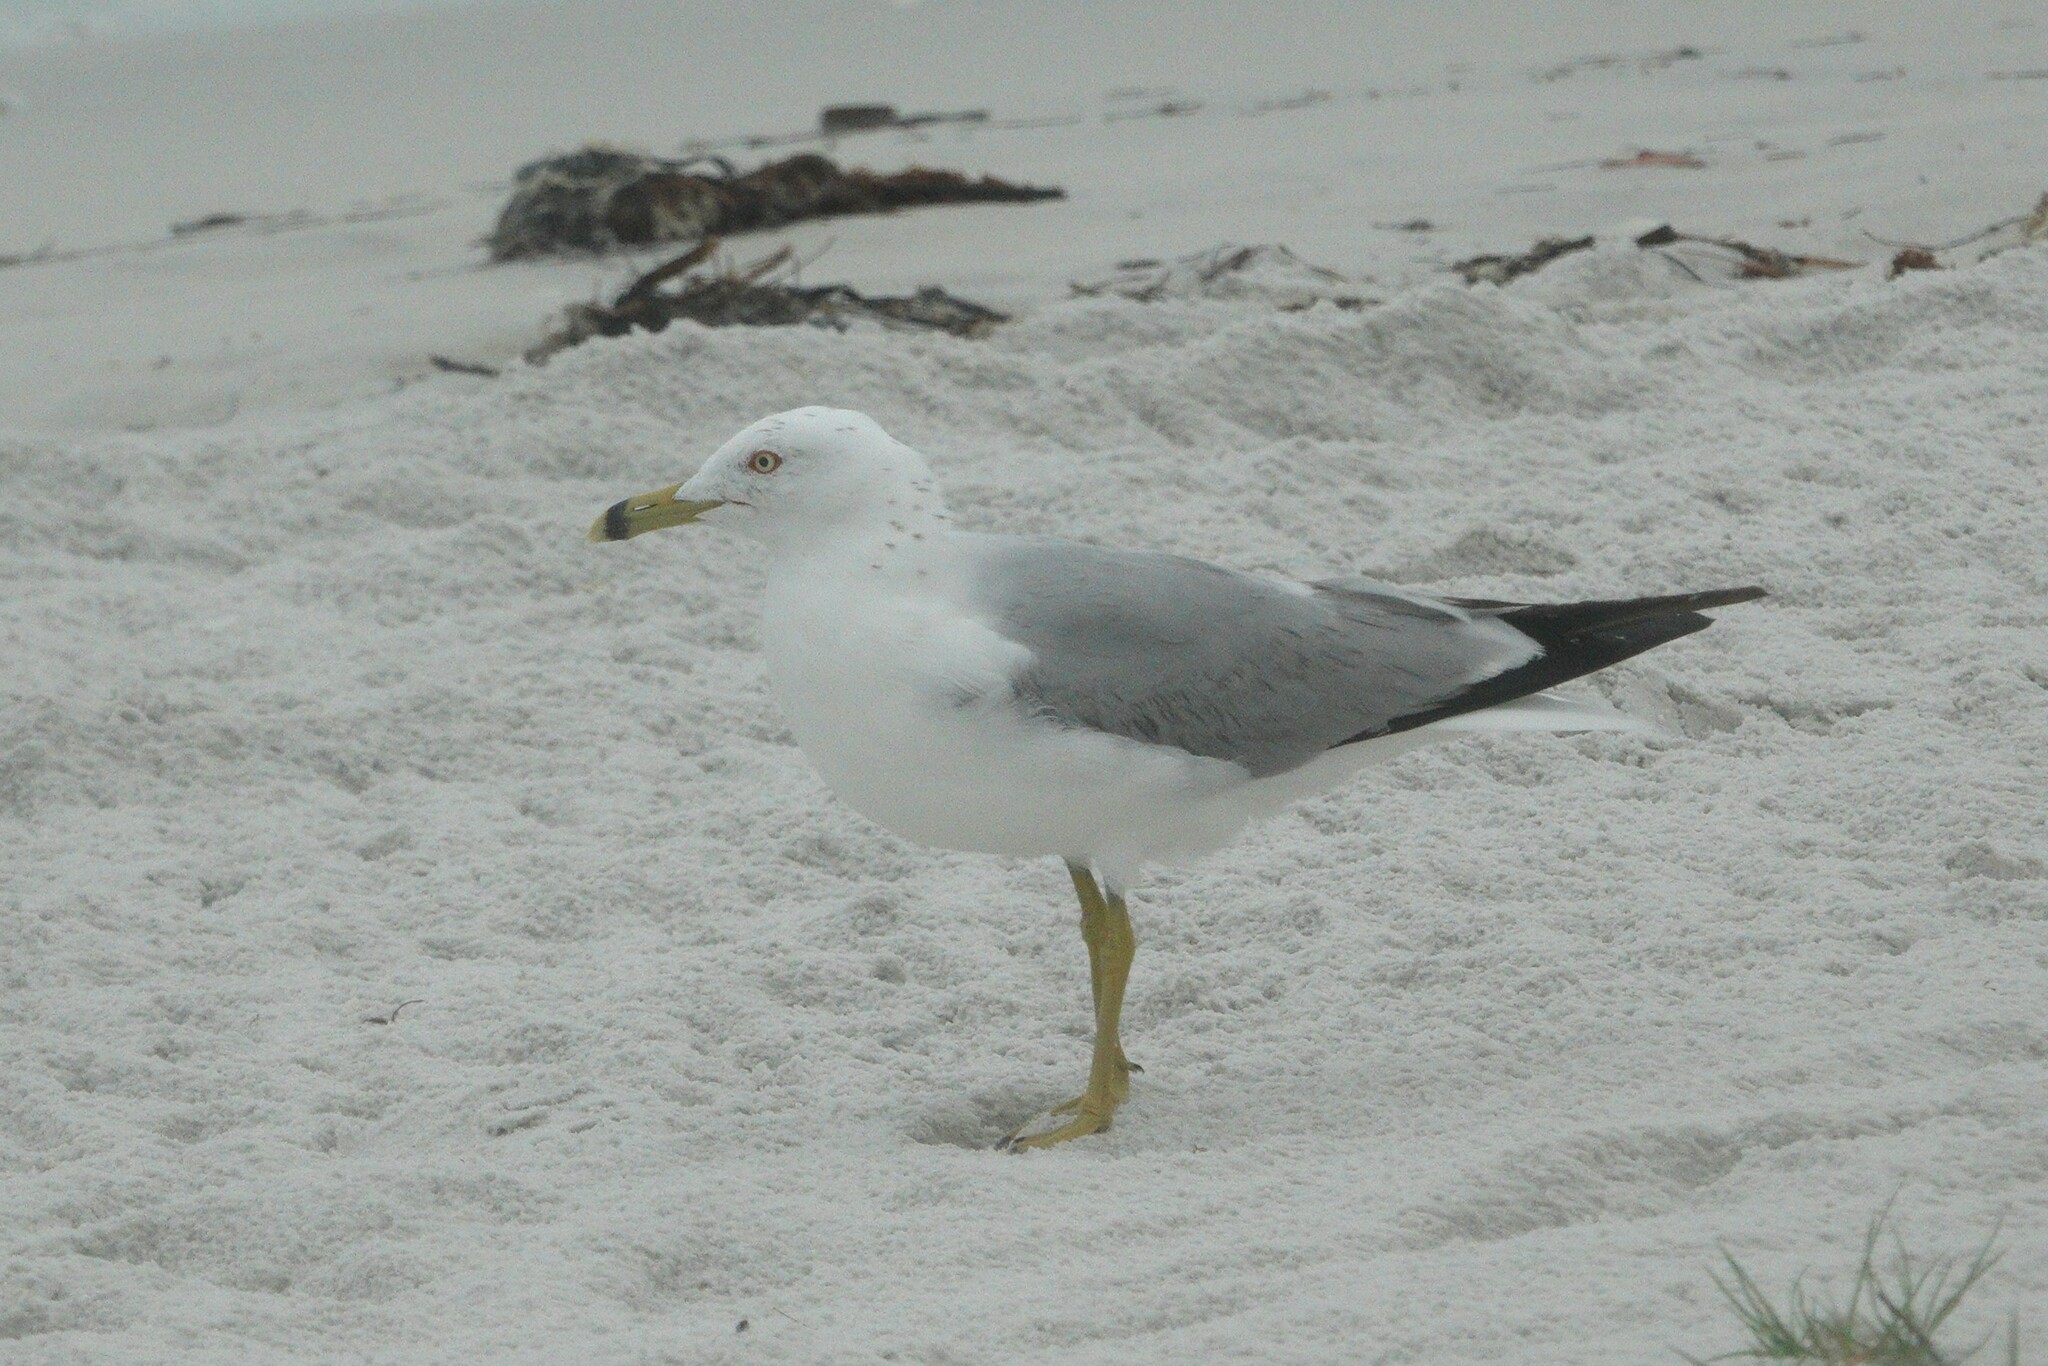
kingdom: Animalia
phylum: Chordata
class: Aves
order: Charadriiformes
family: Laridae
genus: Larus
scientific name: Larus delawarensis
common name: Ring-billed gull
